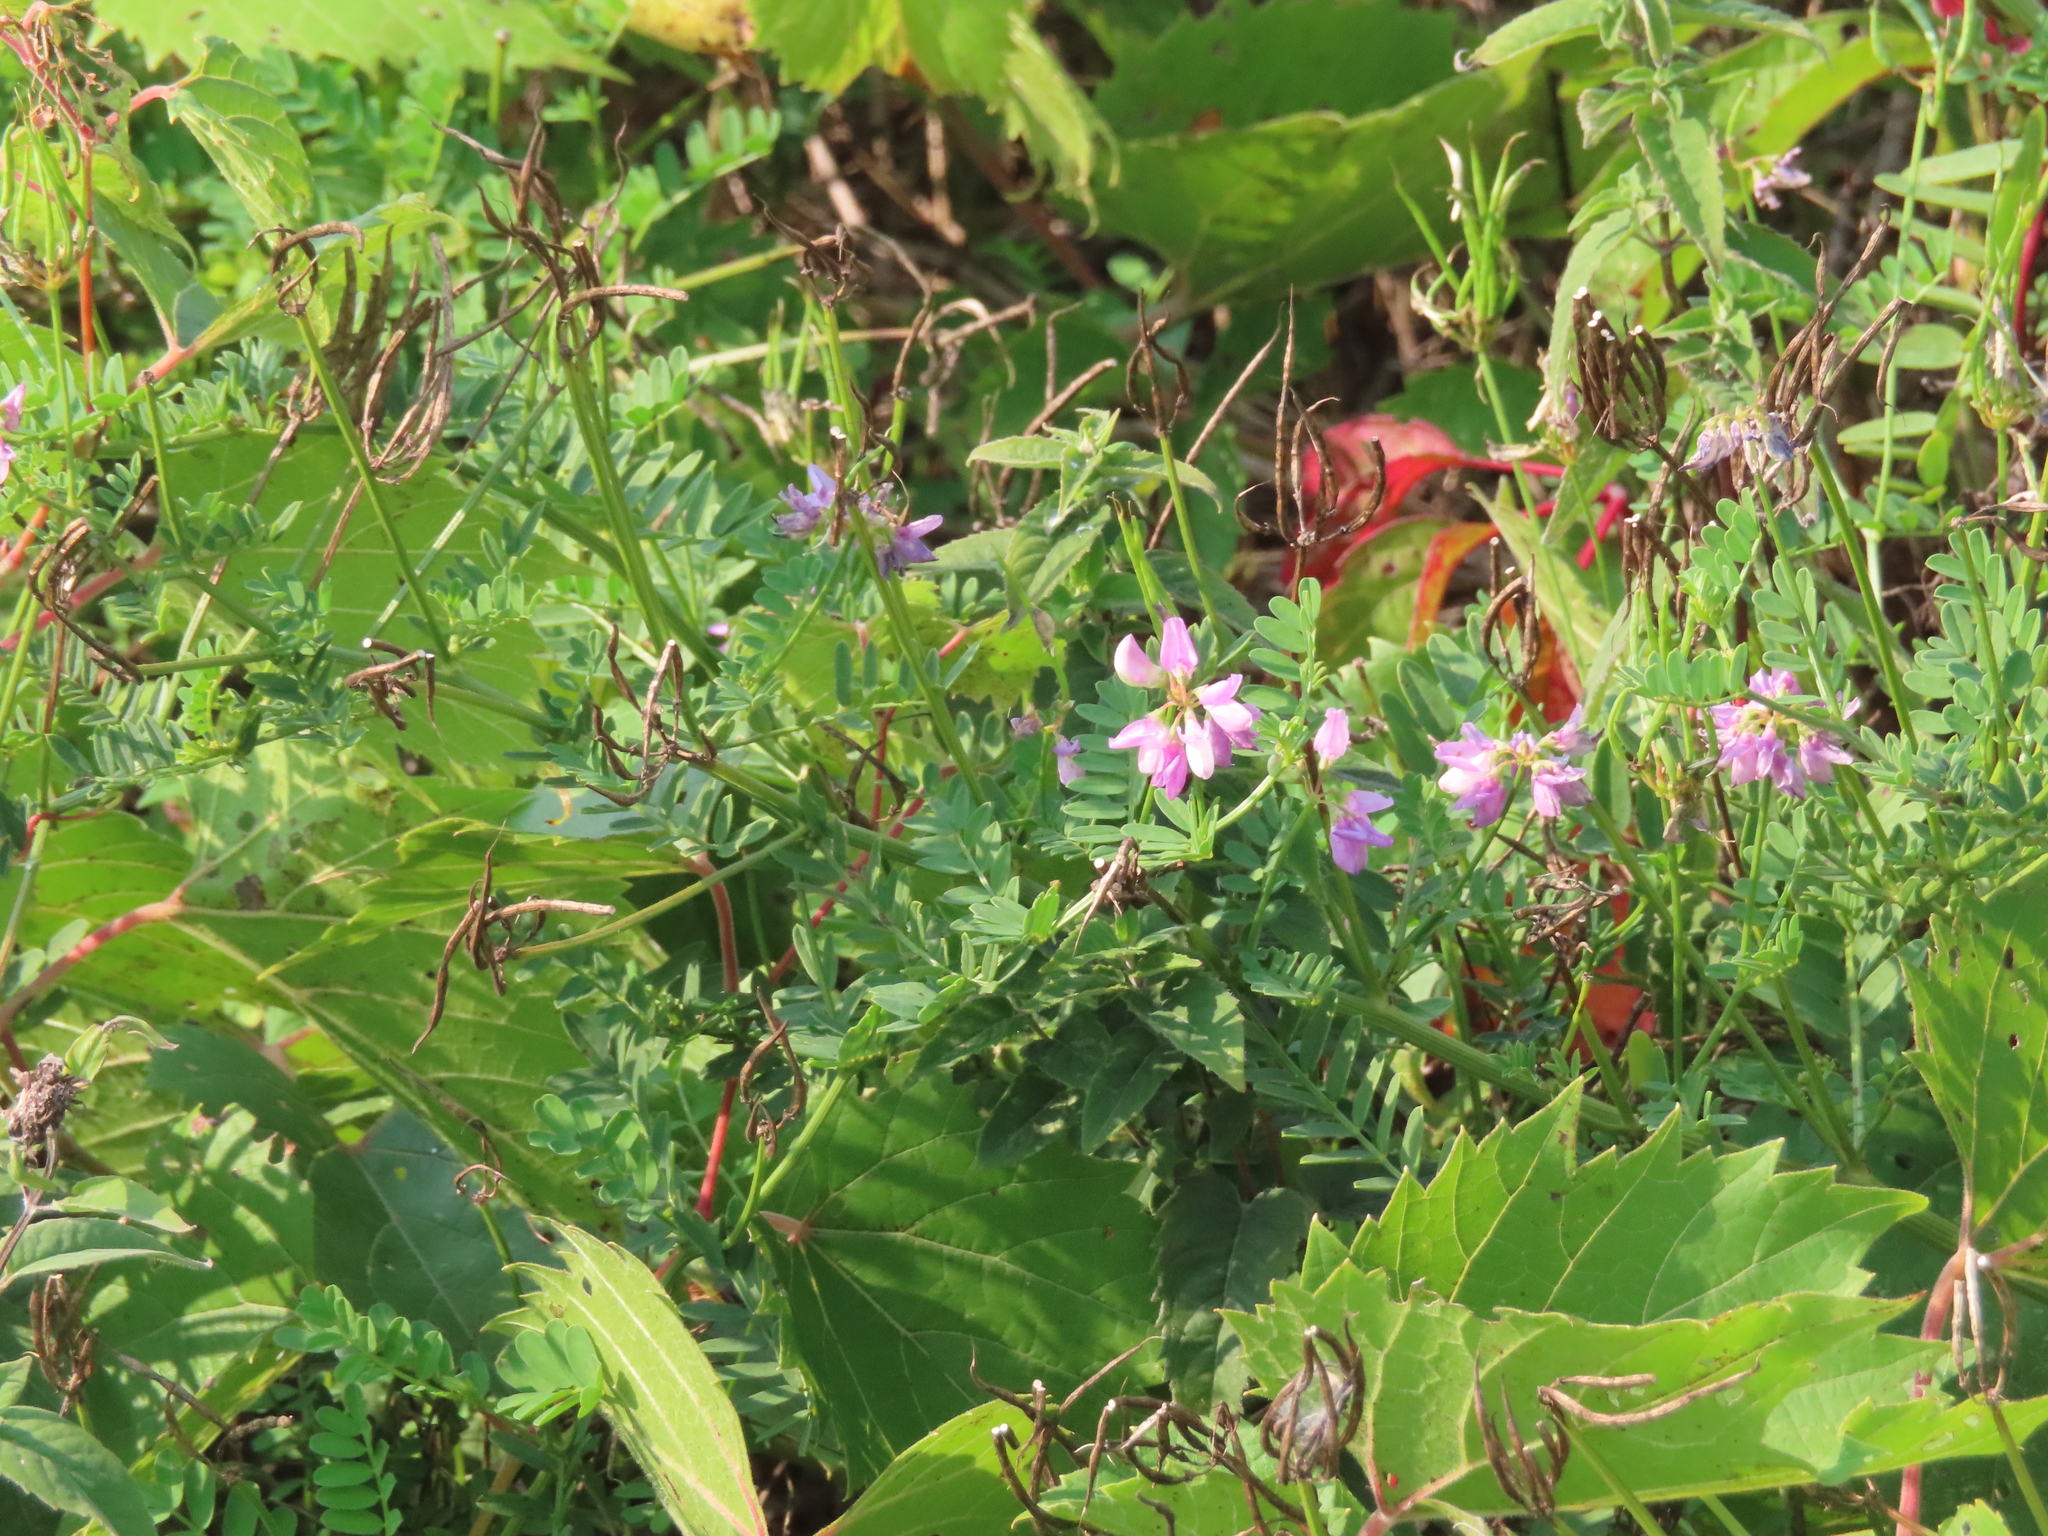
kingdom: Plantae
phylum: Tracheophyta
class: Magnoliopsida
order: Fabales
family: Fabaceae
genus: Coronilla
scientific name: Coronilla varia
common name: Crownvetch
